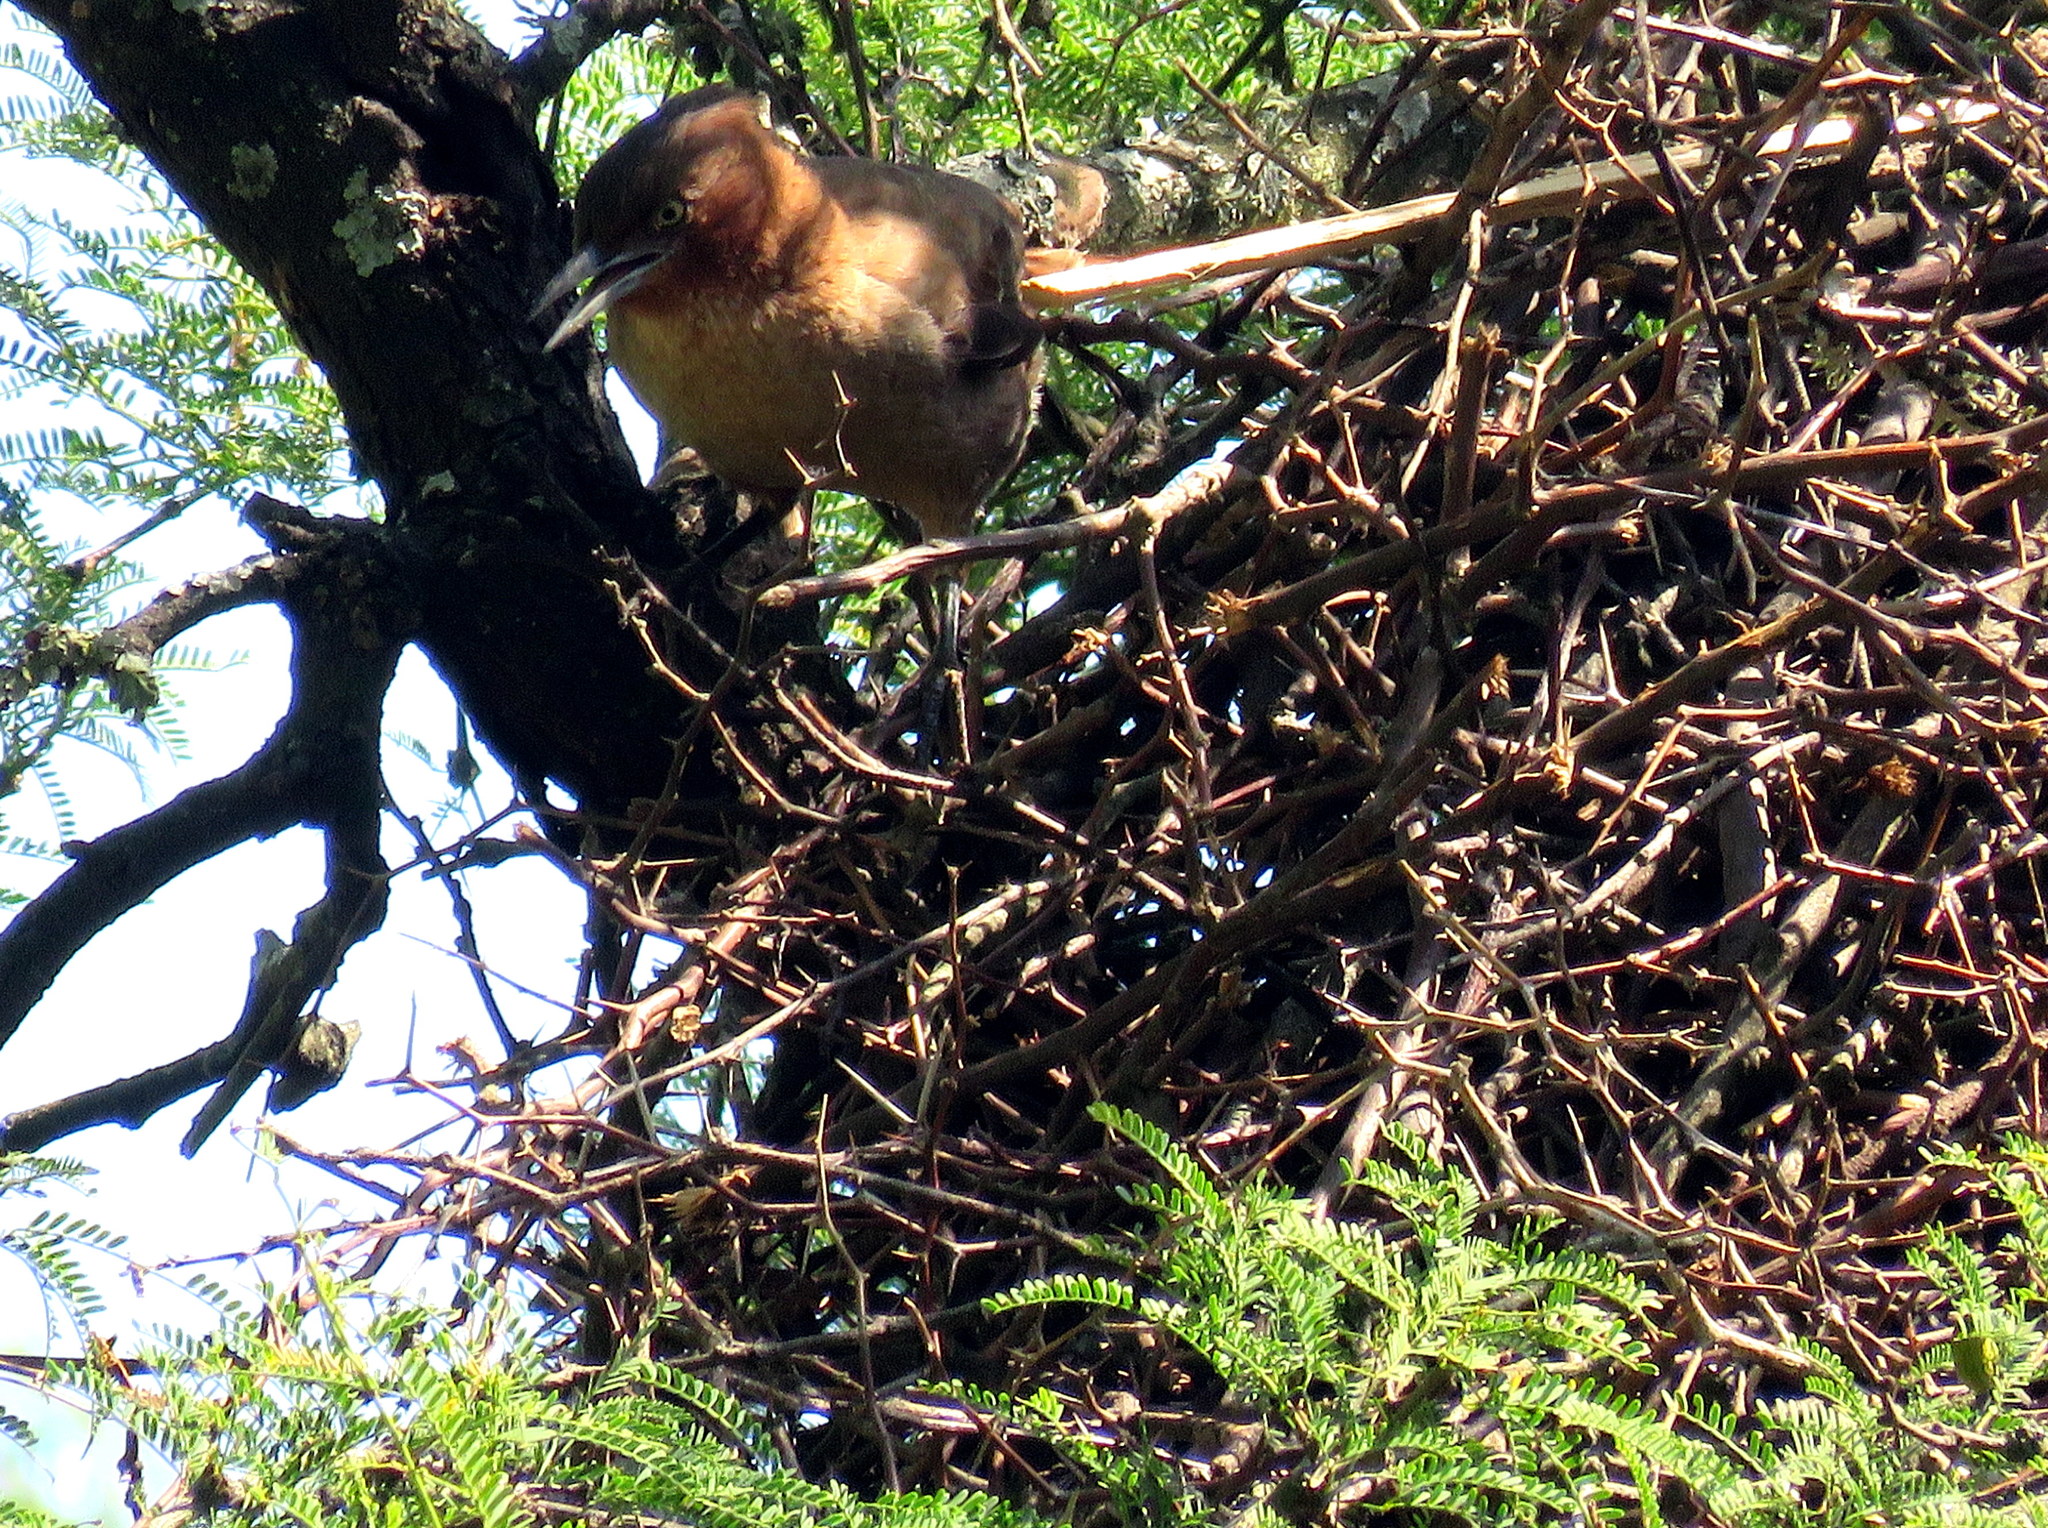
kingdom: Animalia
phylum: Chordata
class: Aves
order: Passeriformes
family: Furnariidae
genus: Pseudoseisura
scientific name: Pseudoseisura lophotes
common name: Brown cacholote
